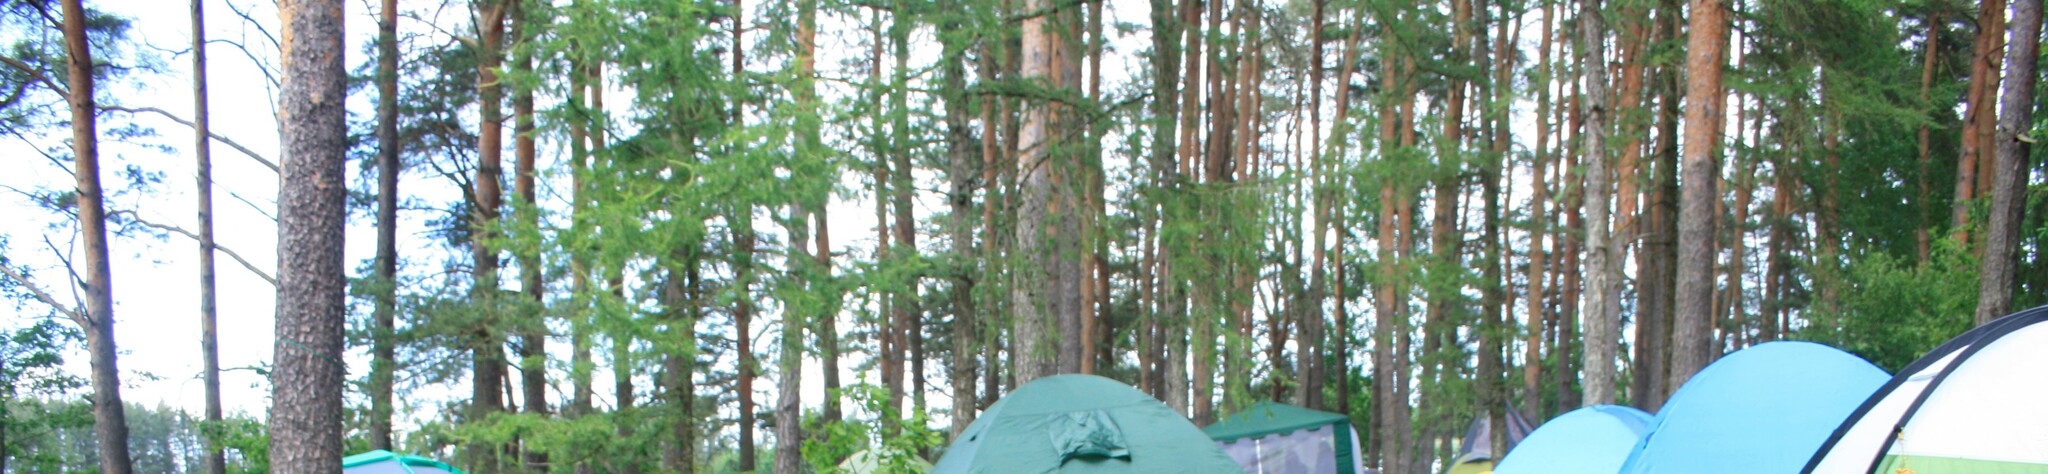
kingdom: Plantae
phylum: Tracheophyta
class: Pinopsida
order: Pinales
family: Pinaceae
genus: Pinus
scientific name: Pinus sylvestris
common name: Scots pine
